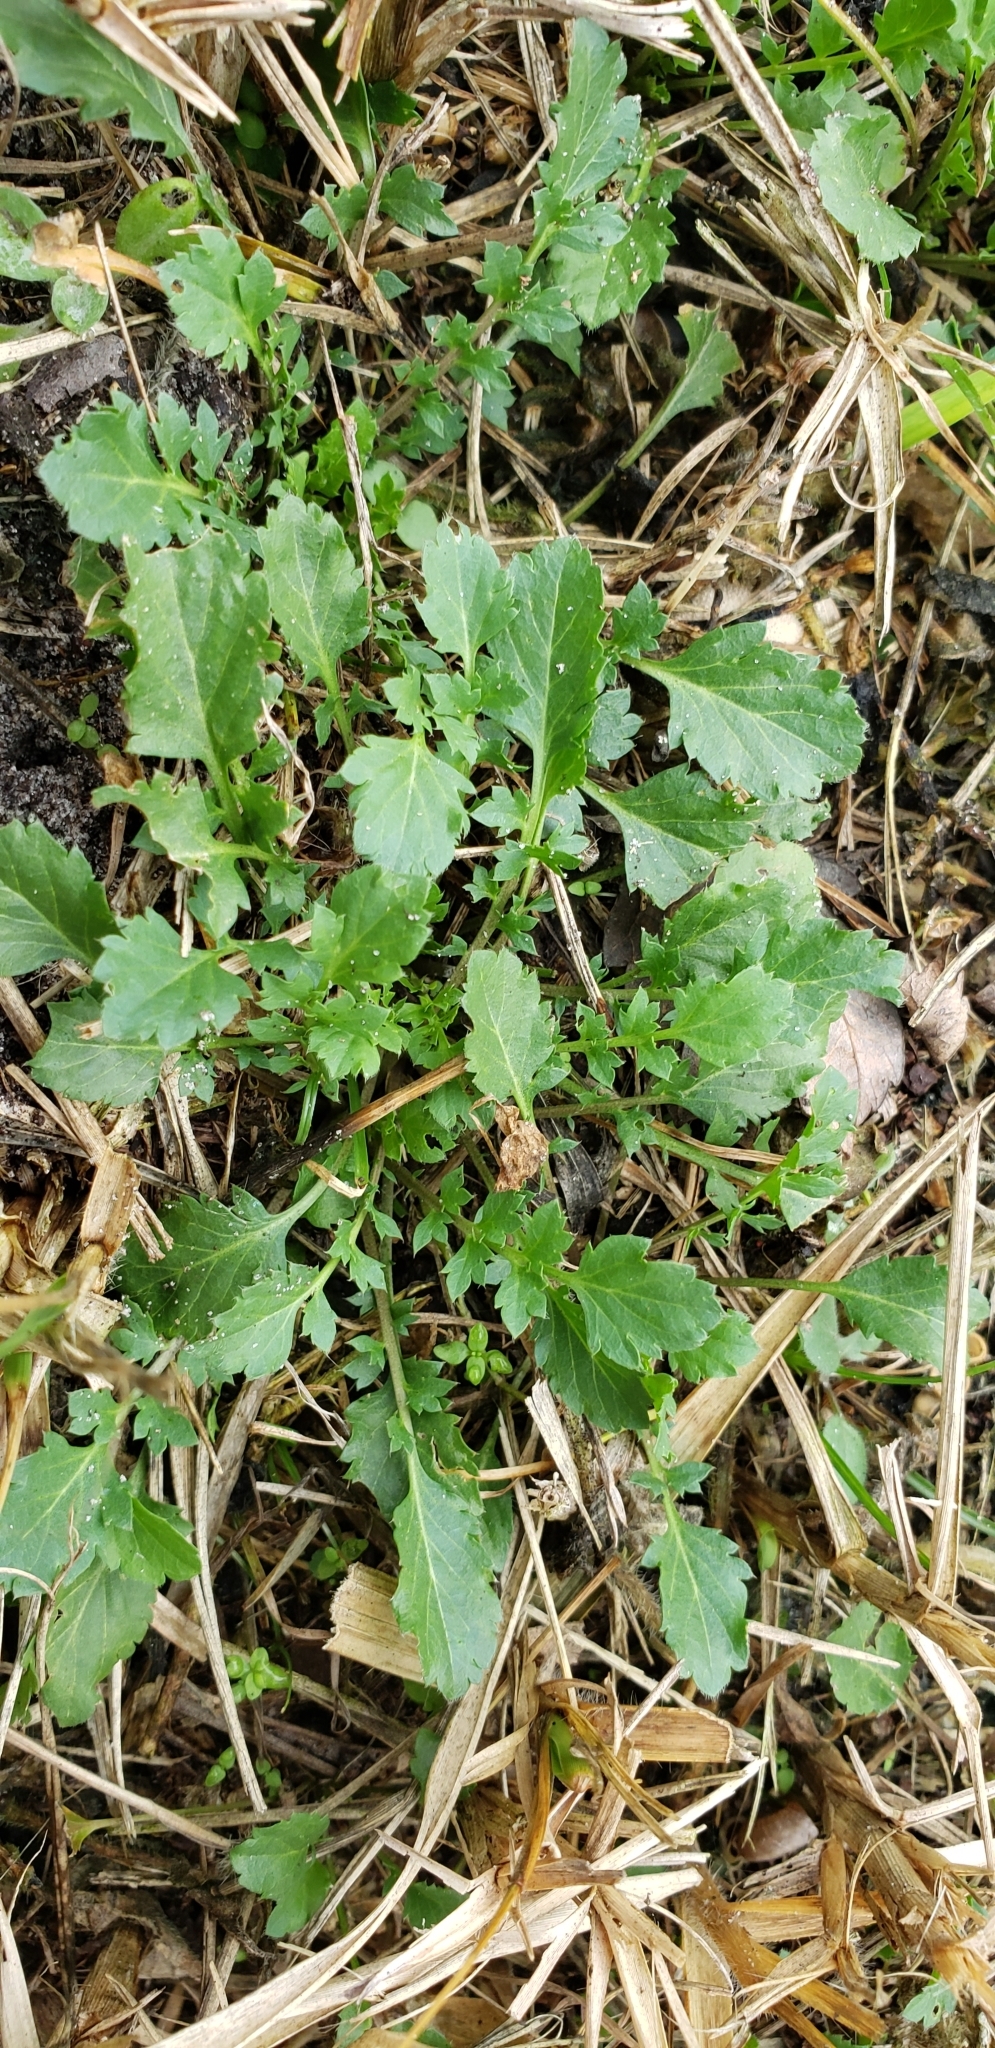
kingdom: Plantae
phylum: Tracheophyta
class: Magnoliopsida
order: Brassicales
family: Brassicaceae
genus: Lepidium
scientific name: Lepidium virginicum
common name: Least pepperwort
